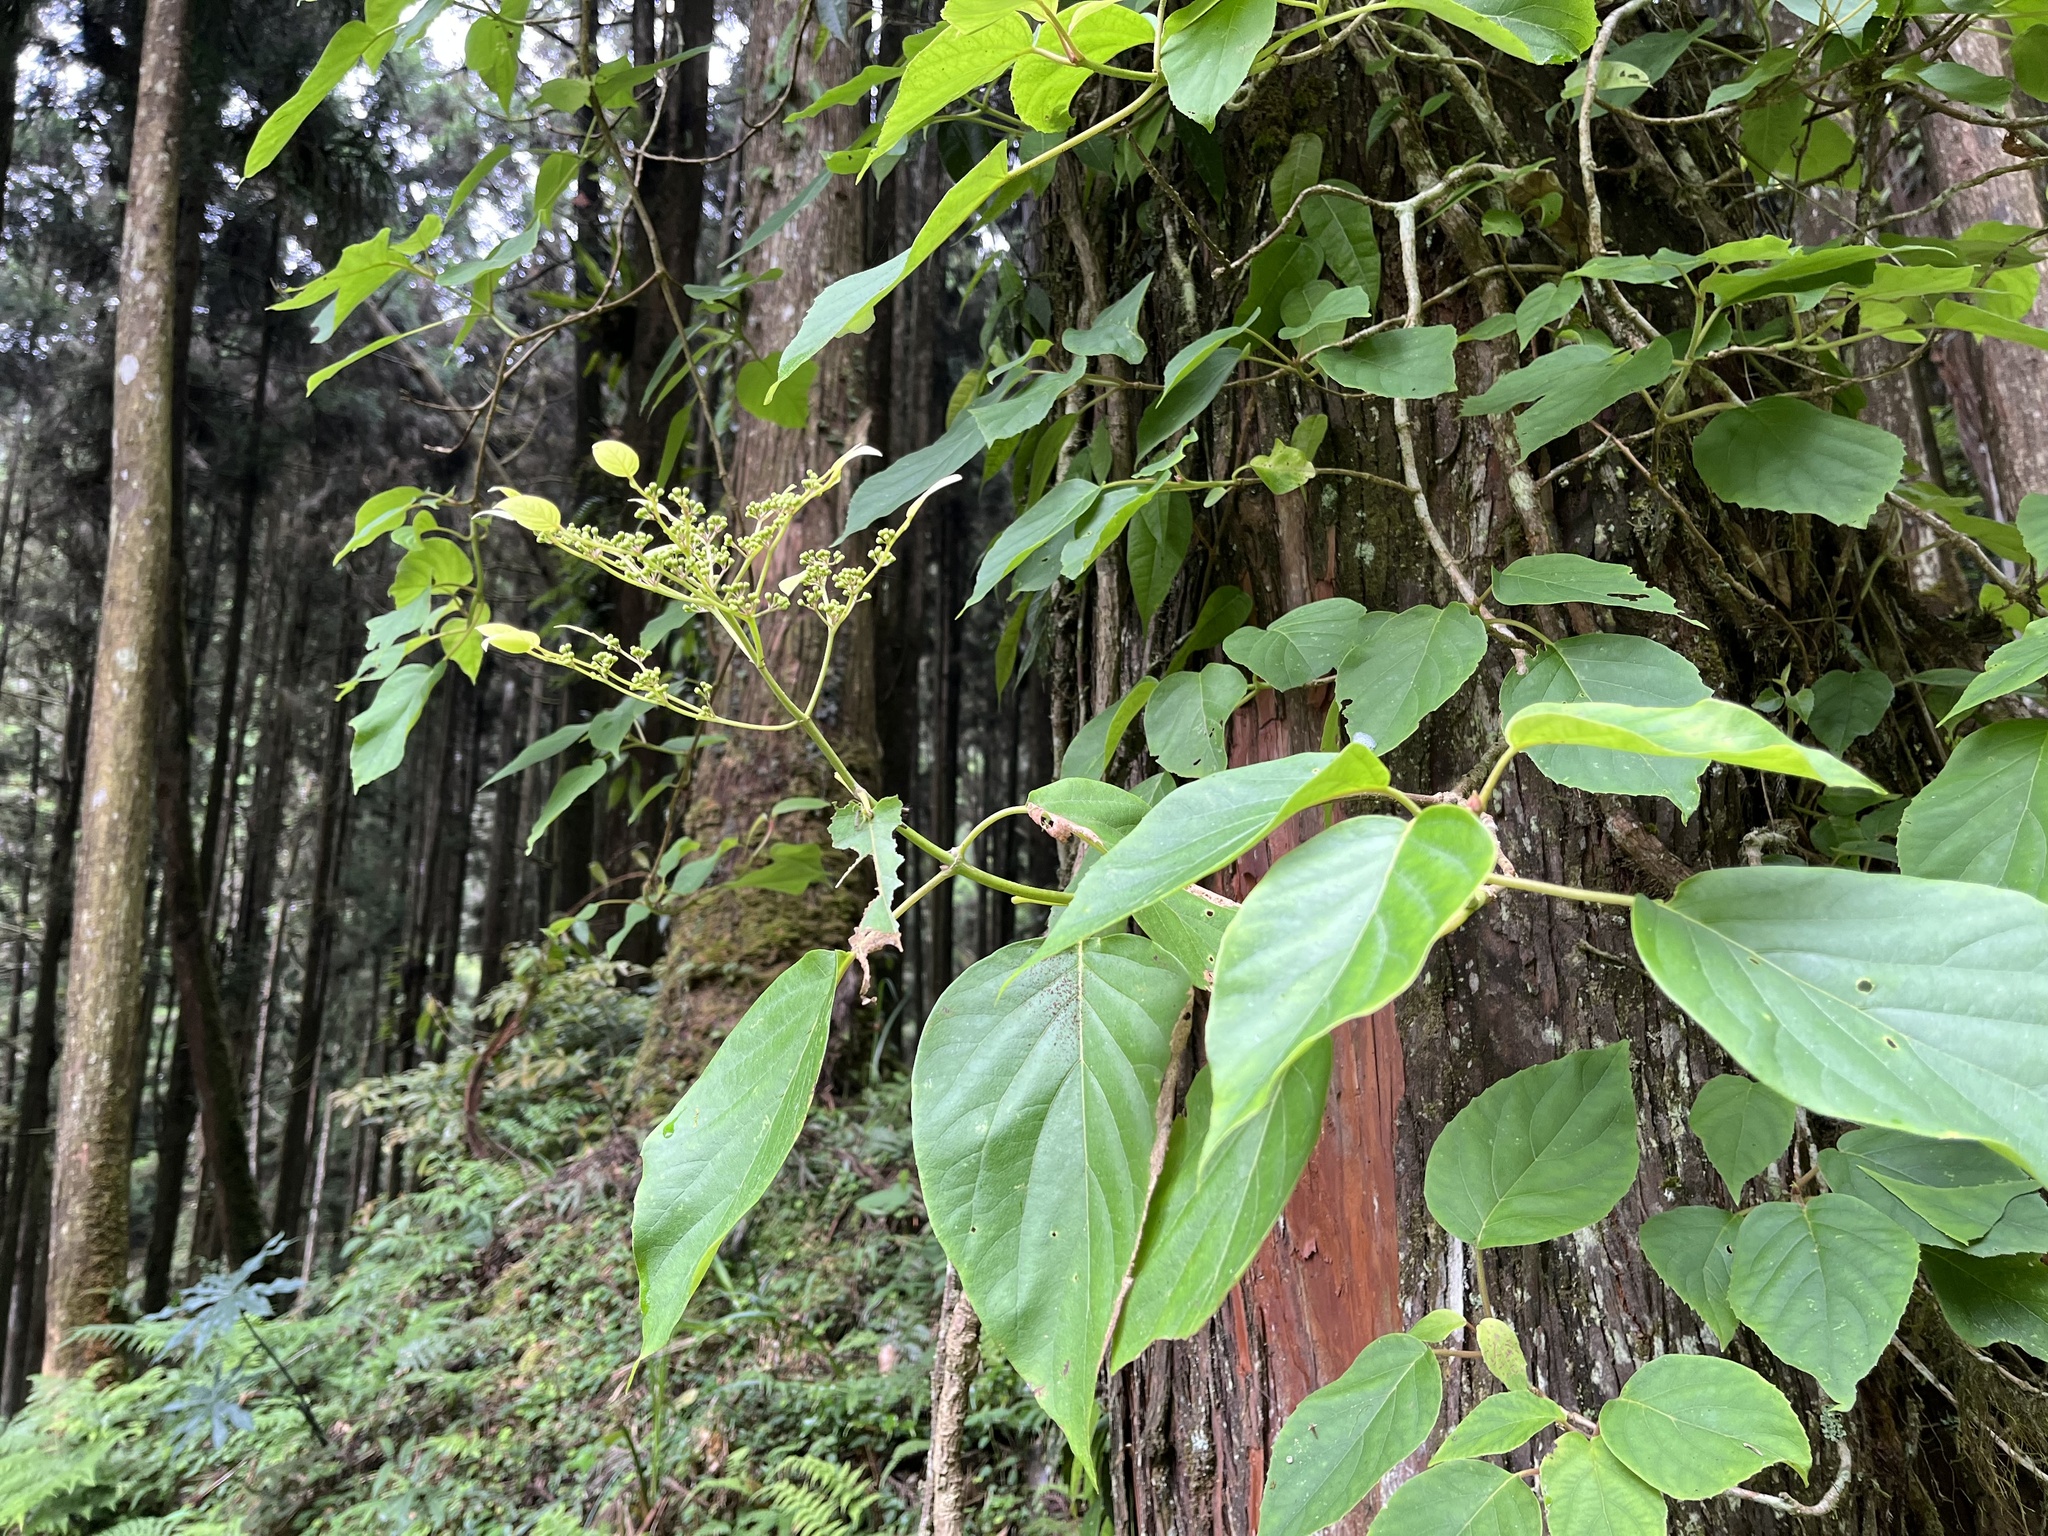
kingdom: Plantae
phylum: Tracheophyta
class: Magnoliopsida
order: Cornales
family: Hydrangeaceae
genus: Hydrangea
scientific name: Hydrangea fauriei
